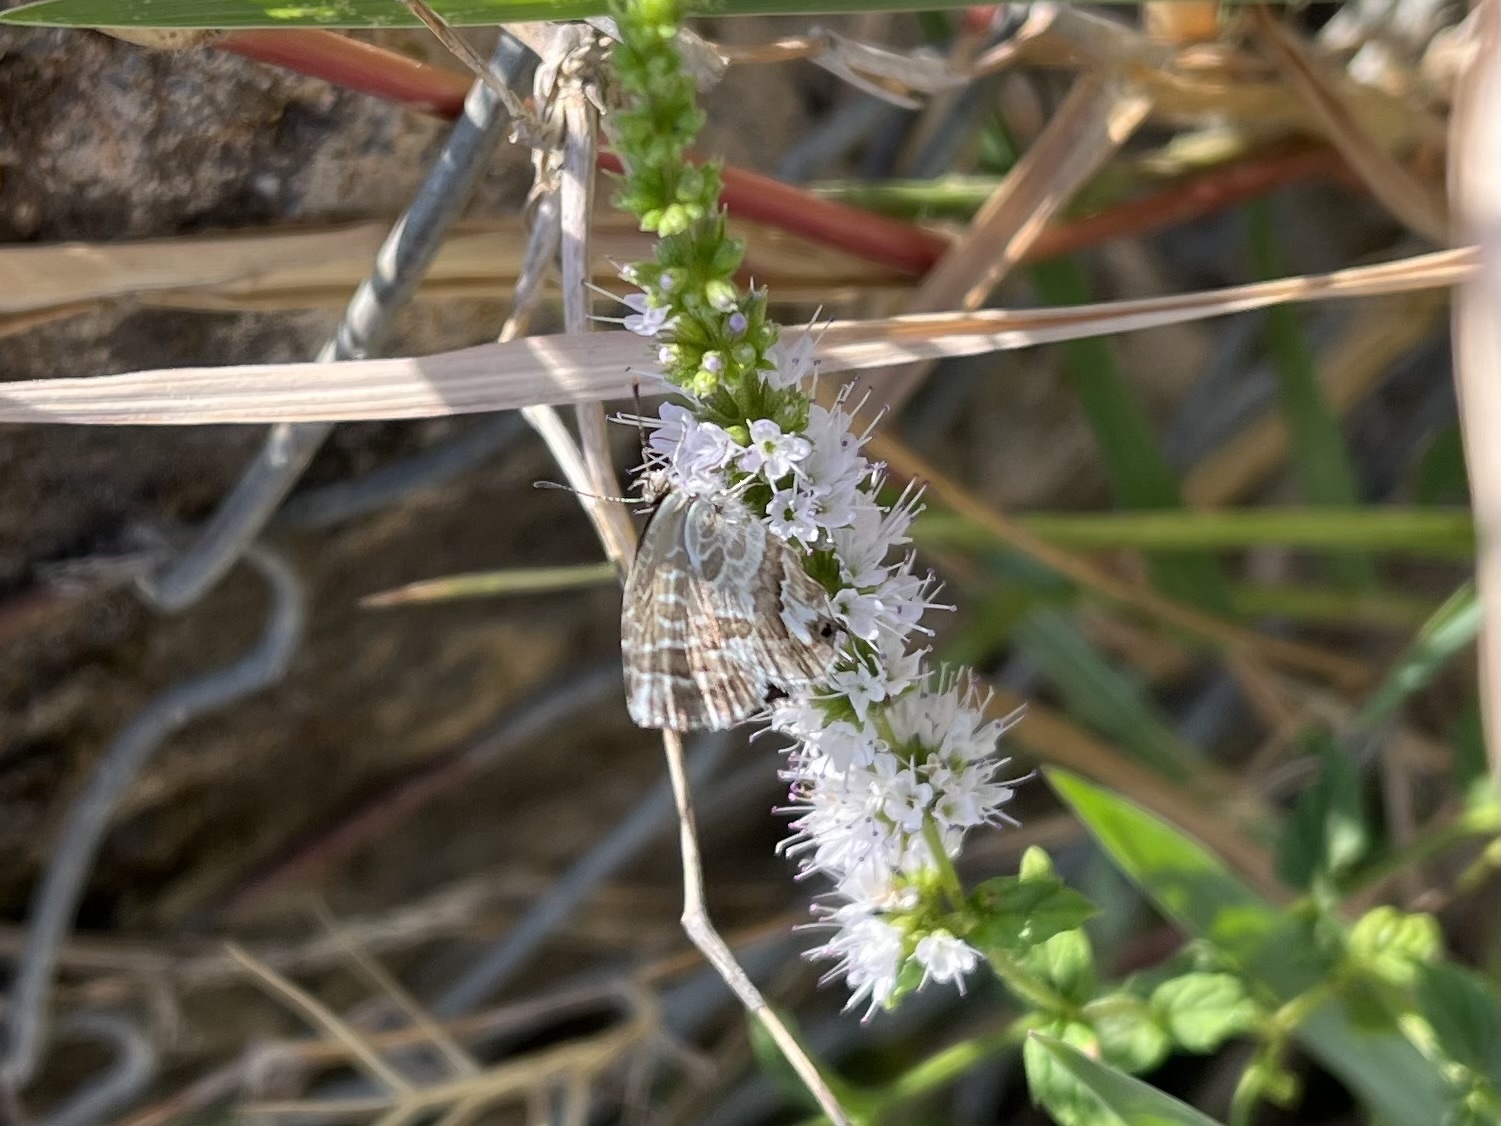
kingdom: Animalia
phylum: Arthropoda
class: Insecta
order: Lepidoptera
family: Lycaenidae
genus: Cacyreus
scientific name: Cacyreus marshalli
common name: Geranium bronze
